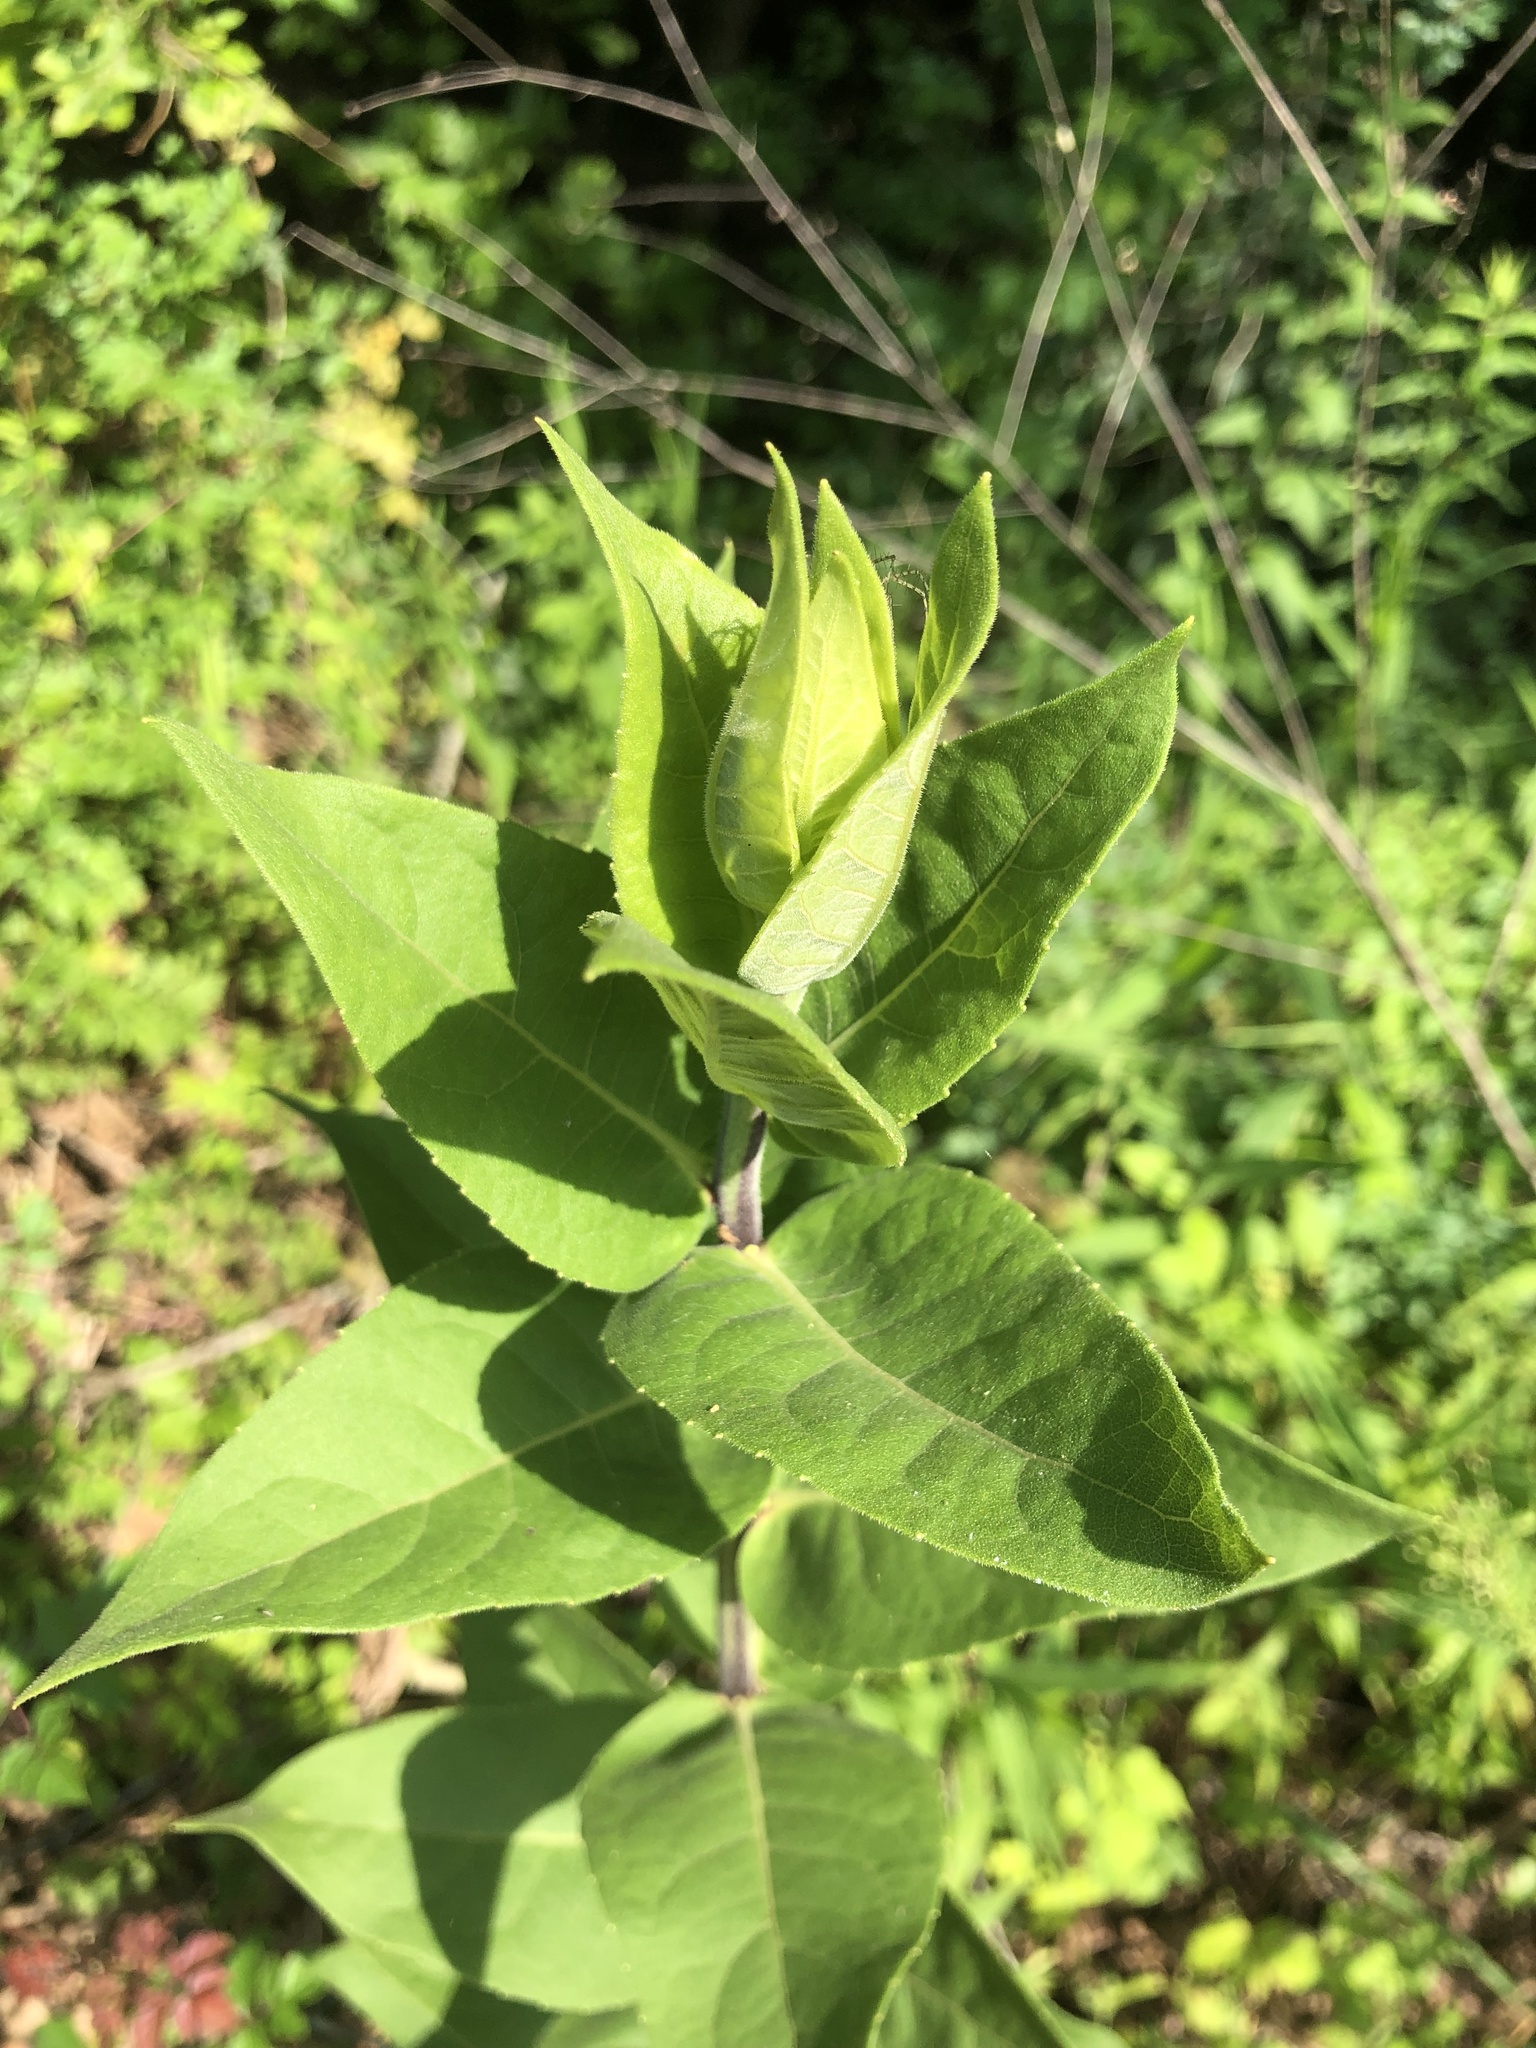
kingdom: Plantae
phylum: Tracheophyta
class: Magnoliopsida
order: Asterales
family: Asteraceae
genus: Silphium
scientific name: Silphium integrifolium
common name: Whole-leaf rosinweed
